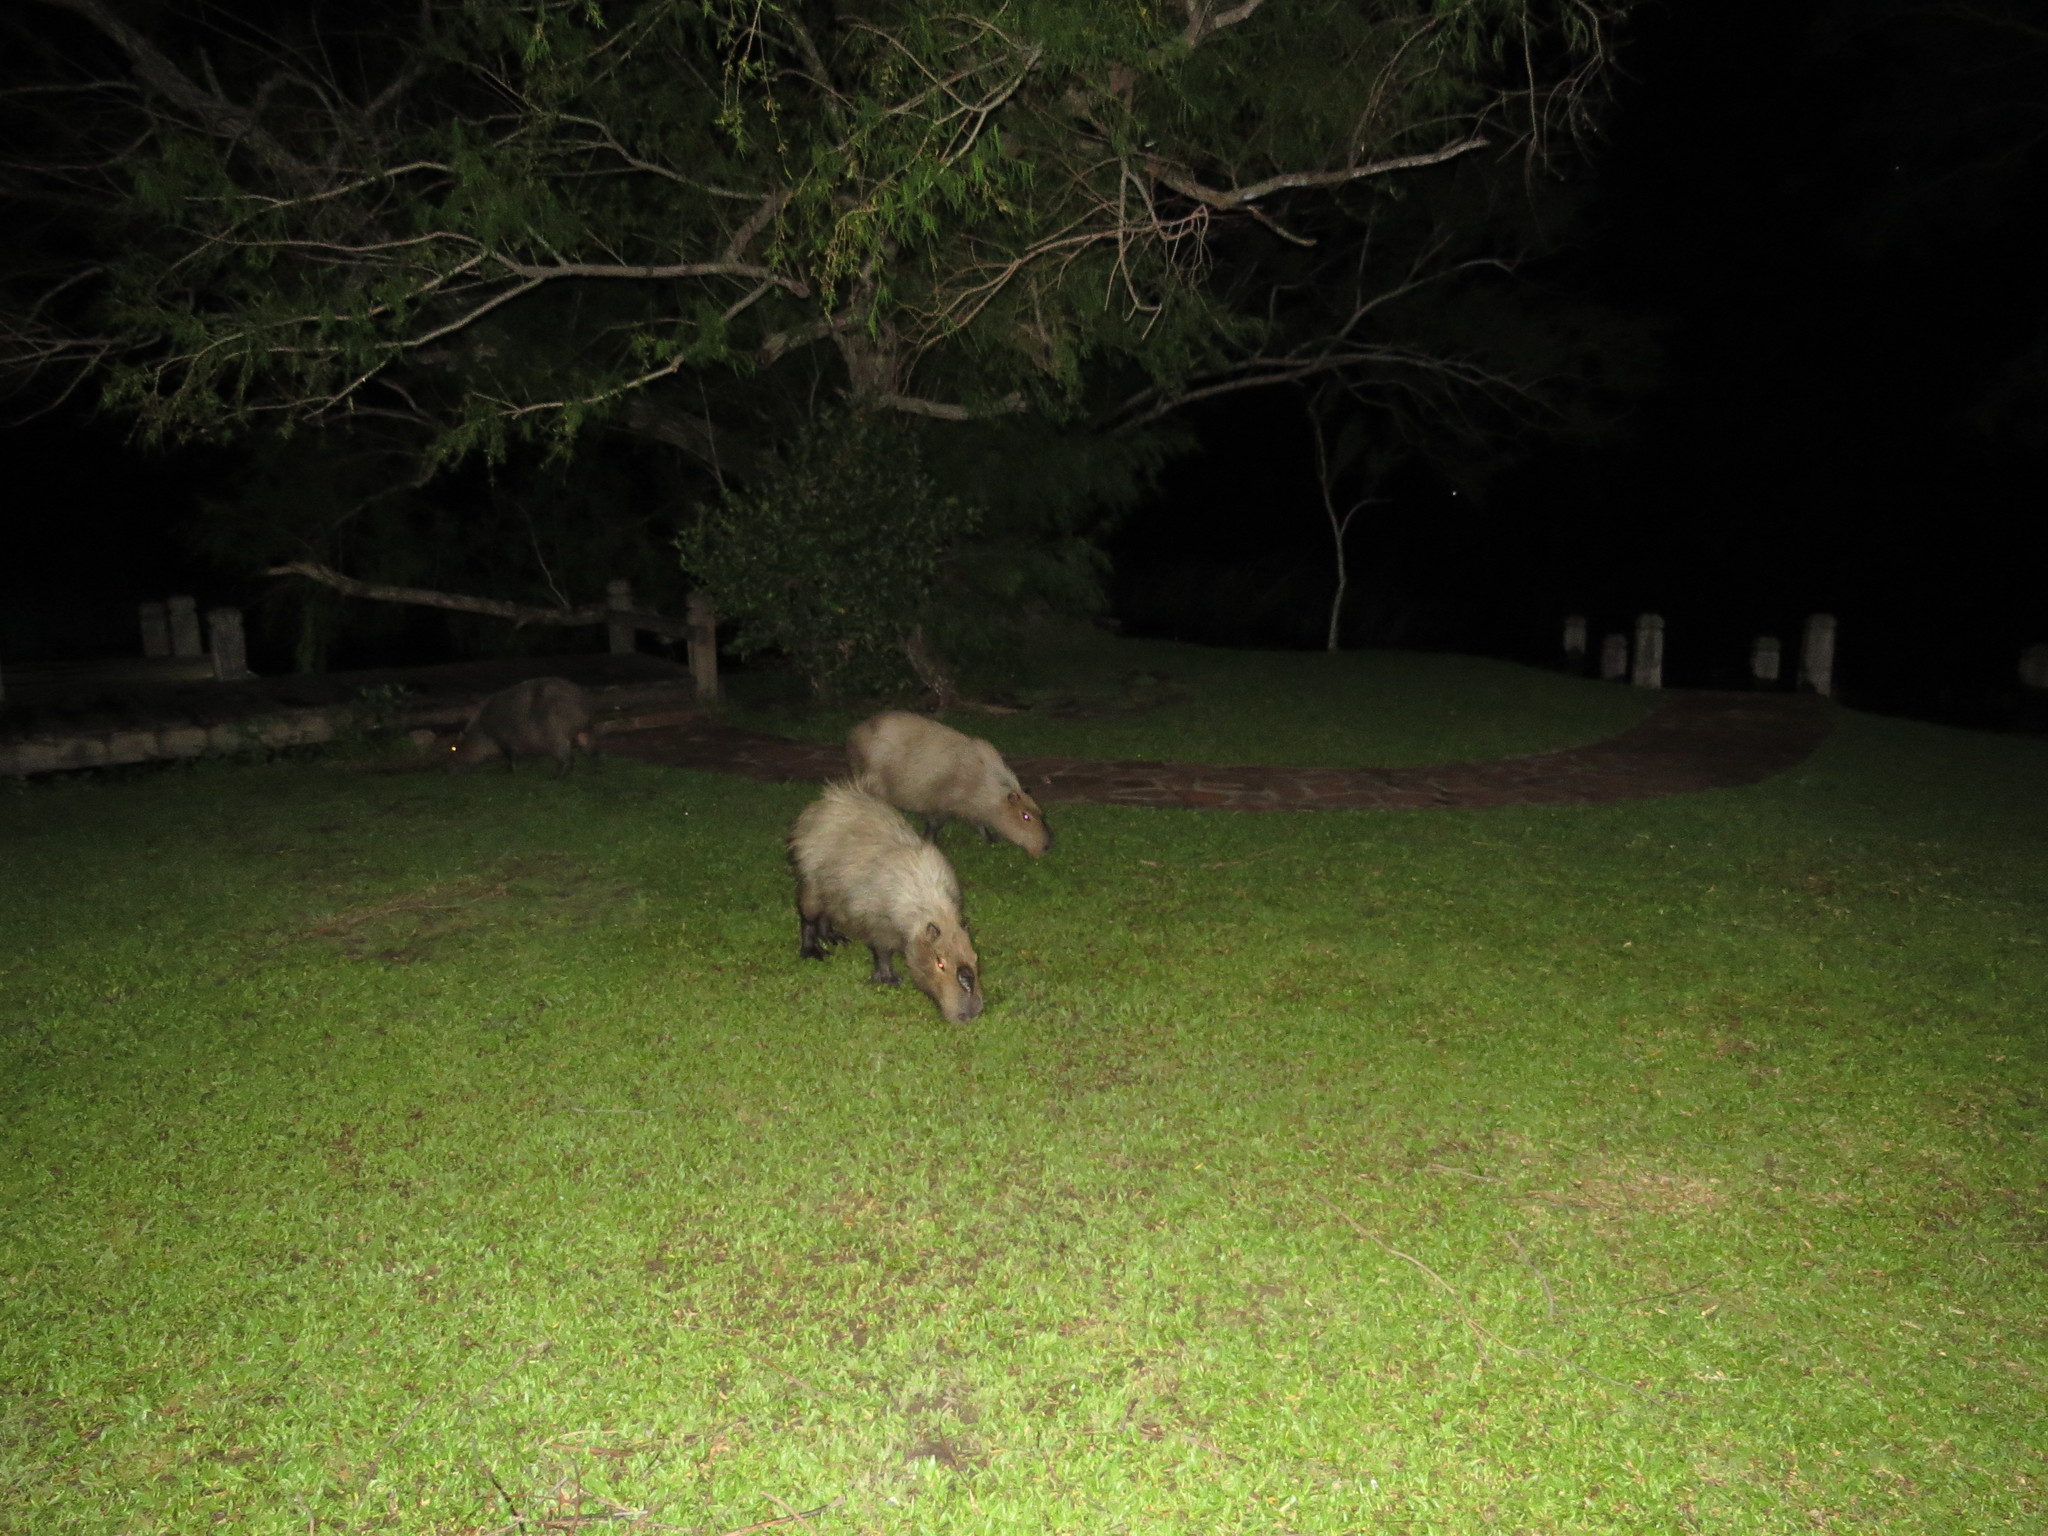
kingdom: Animalia
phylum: Chordata
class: Mammalia
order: Rodentia
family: Caviidae
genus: Hydrochoerus
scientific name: Hydrochoerus hydrochaeris
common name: Capybara
